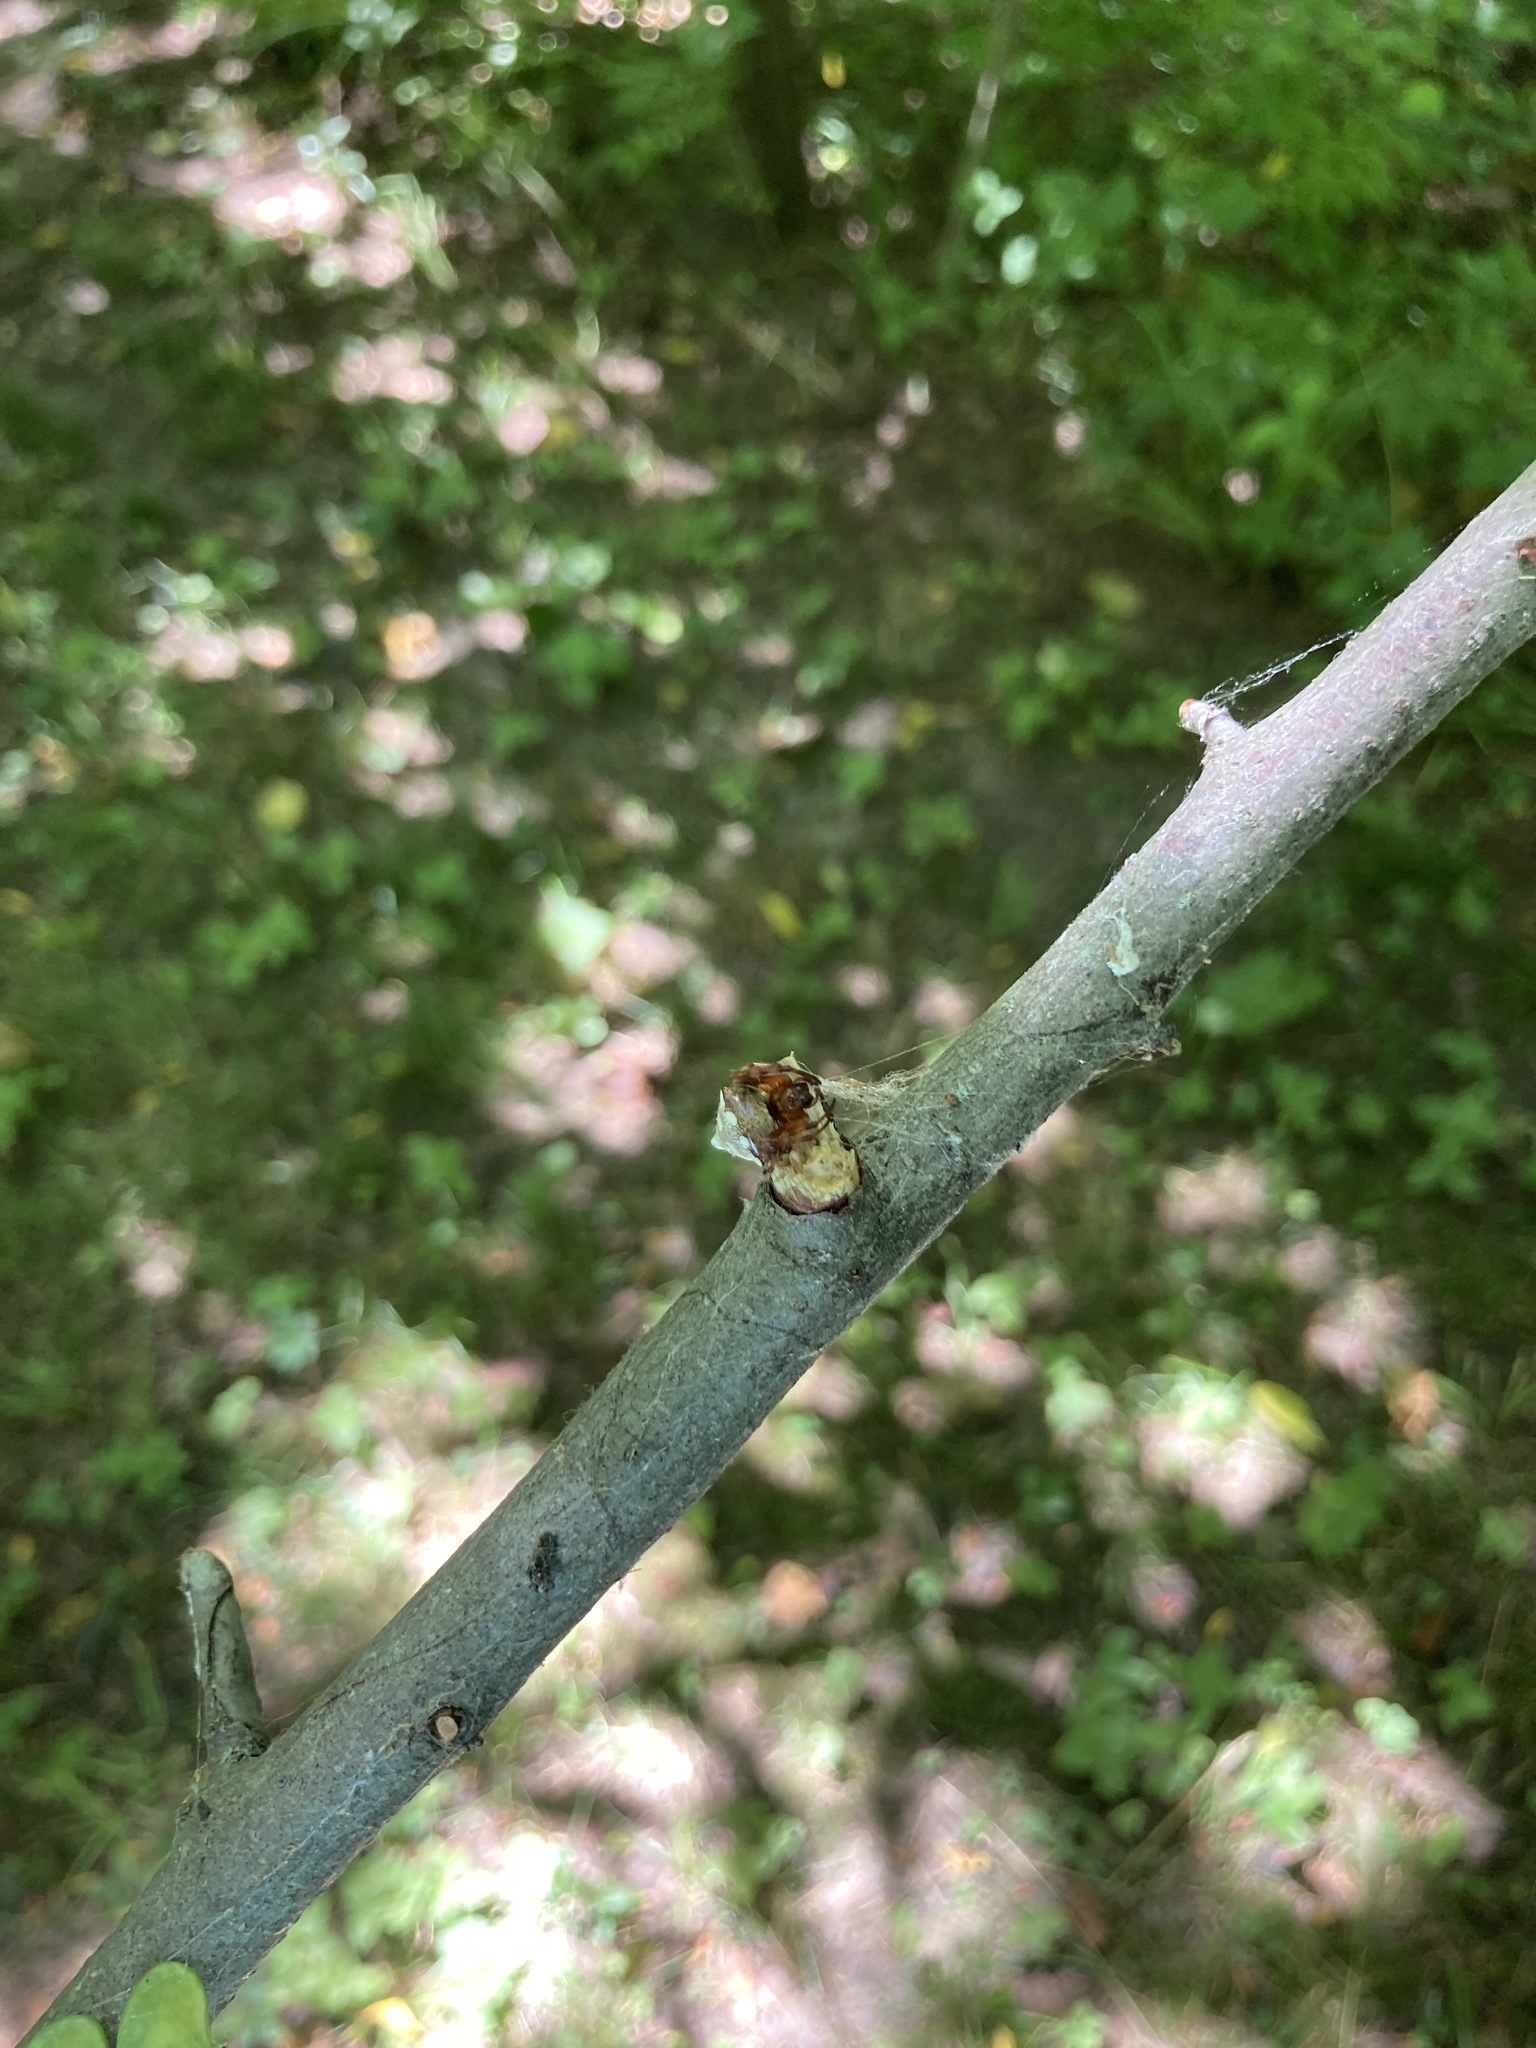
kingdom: Animalia
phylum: Arthropoda
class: Arachnida
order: Araneae
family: Araneidae
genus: Verrucosa
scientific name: Verrucosa arenata
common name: Orb weavers
